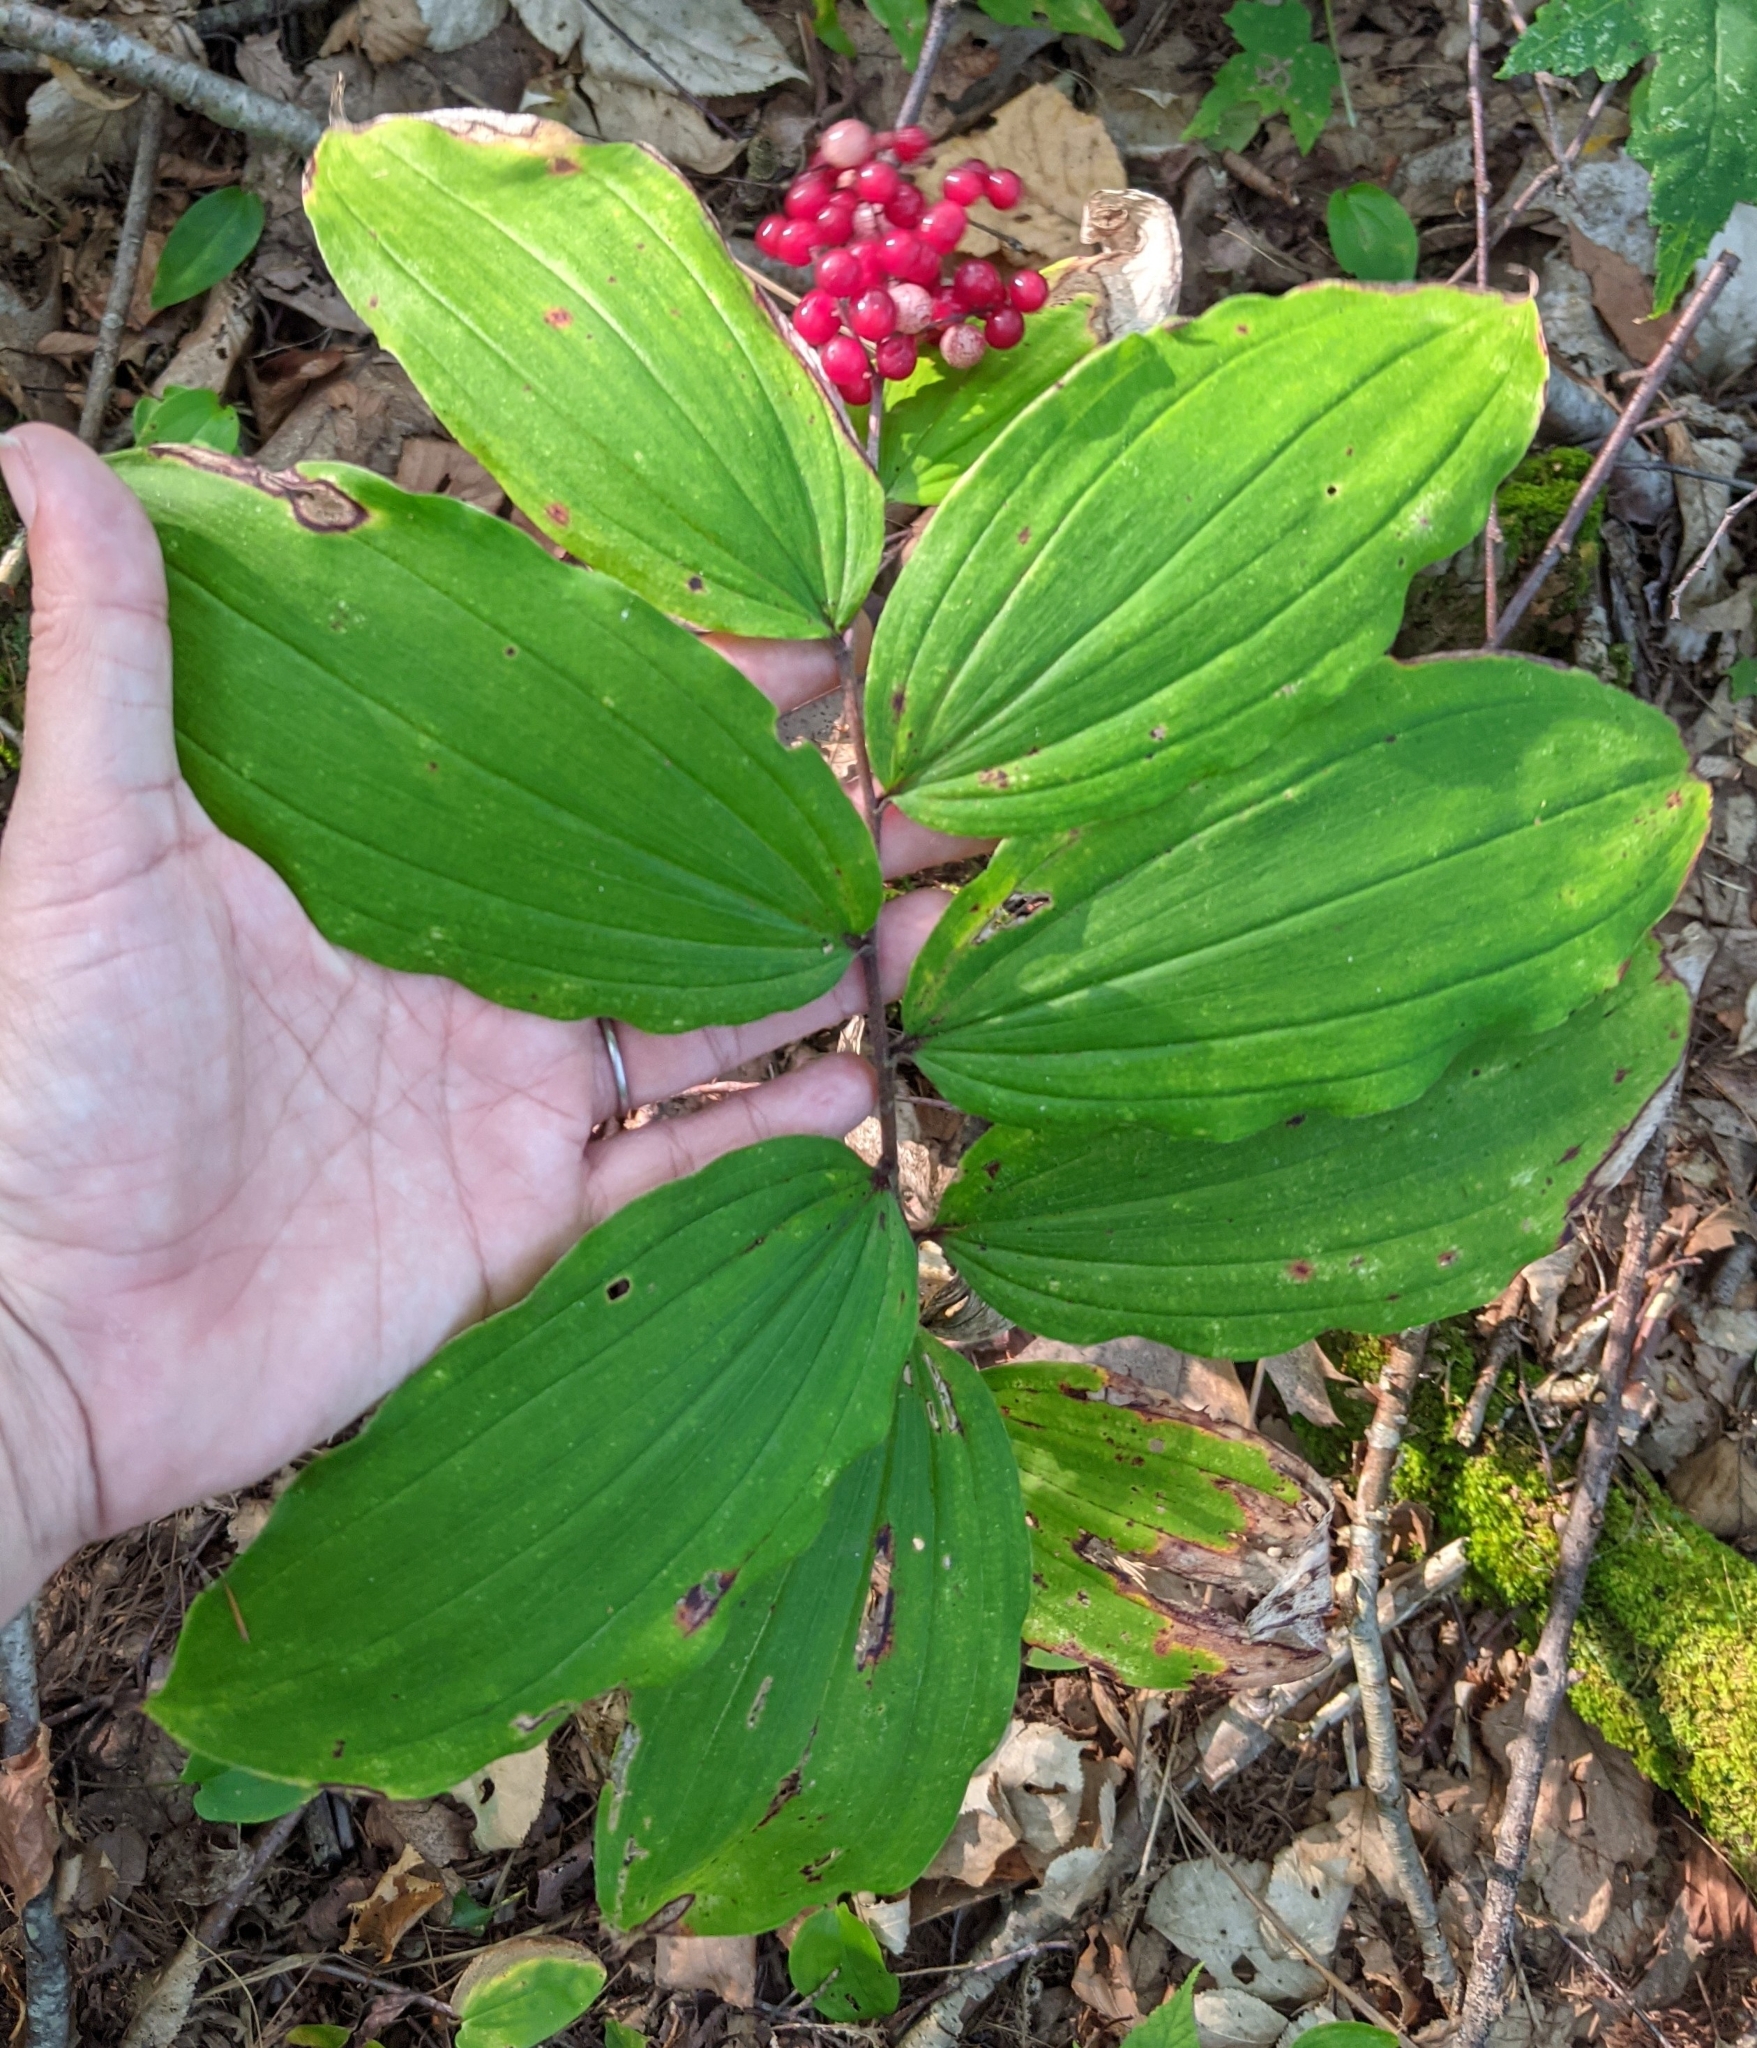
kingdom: Plantae
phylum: Tracheophyta
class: Liliopsida
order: Asparagales
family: Asparagaceae
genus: Maianthemum
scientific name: Maianthemum racemosum
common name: False spikenard
